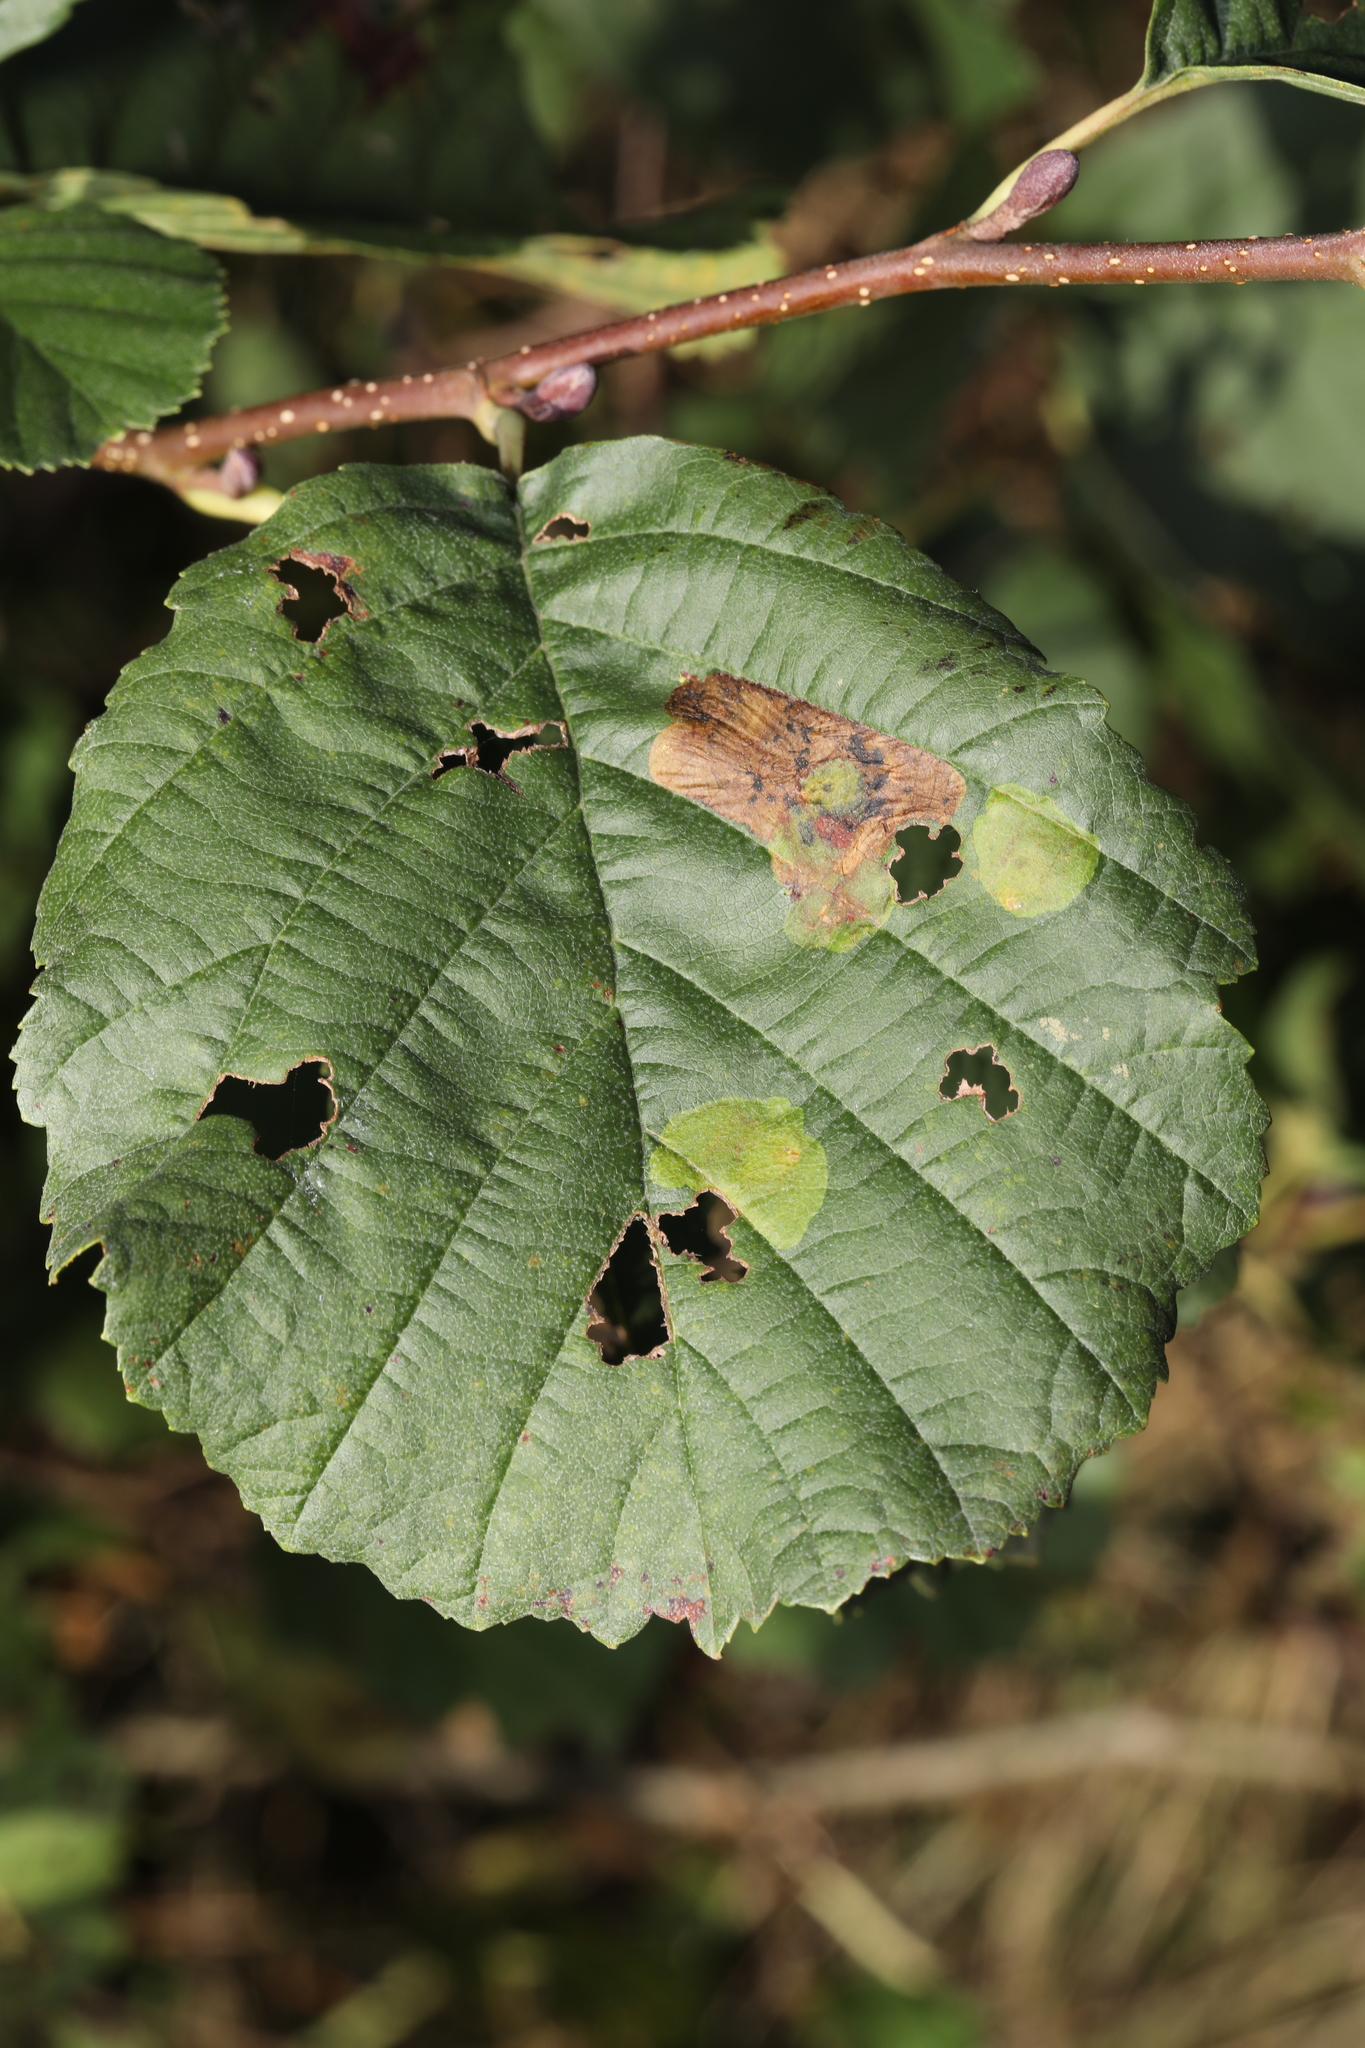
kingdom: Animalia
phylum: Arthropoda
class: Insecta
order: Hymenoptera
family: Tenthredinidae
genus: Fenusa
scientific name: Fenusa dohrnii
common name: European alder leafminer
